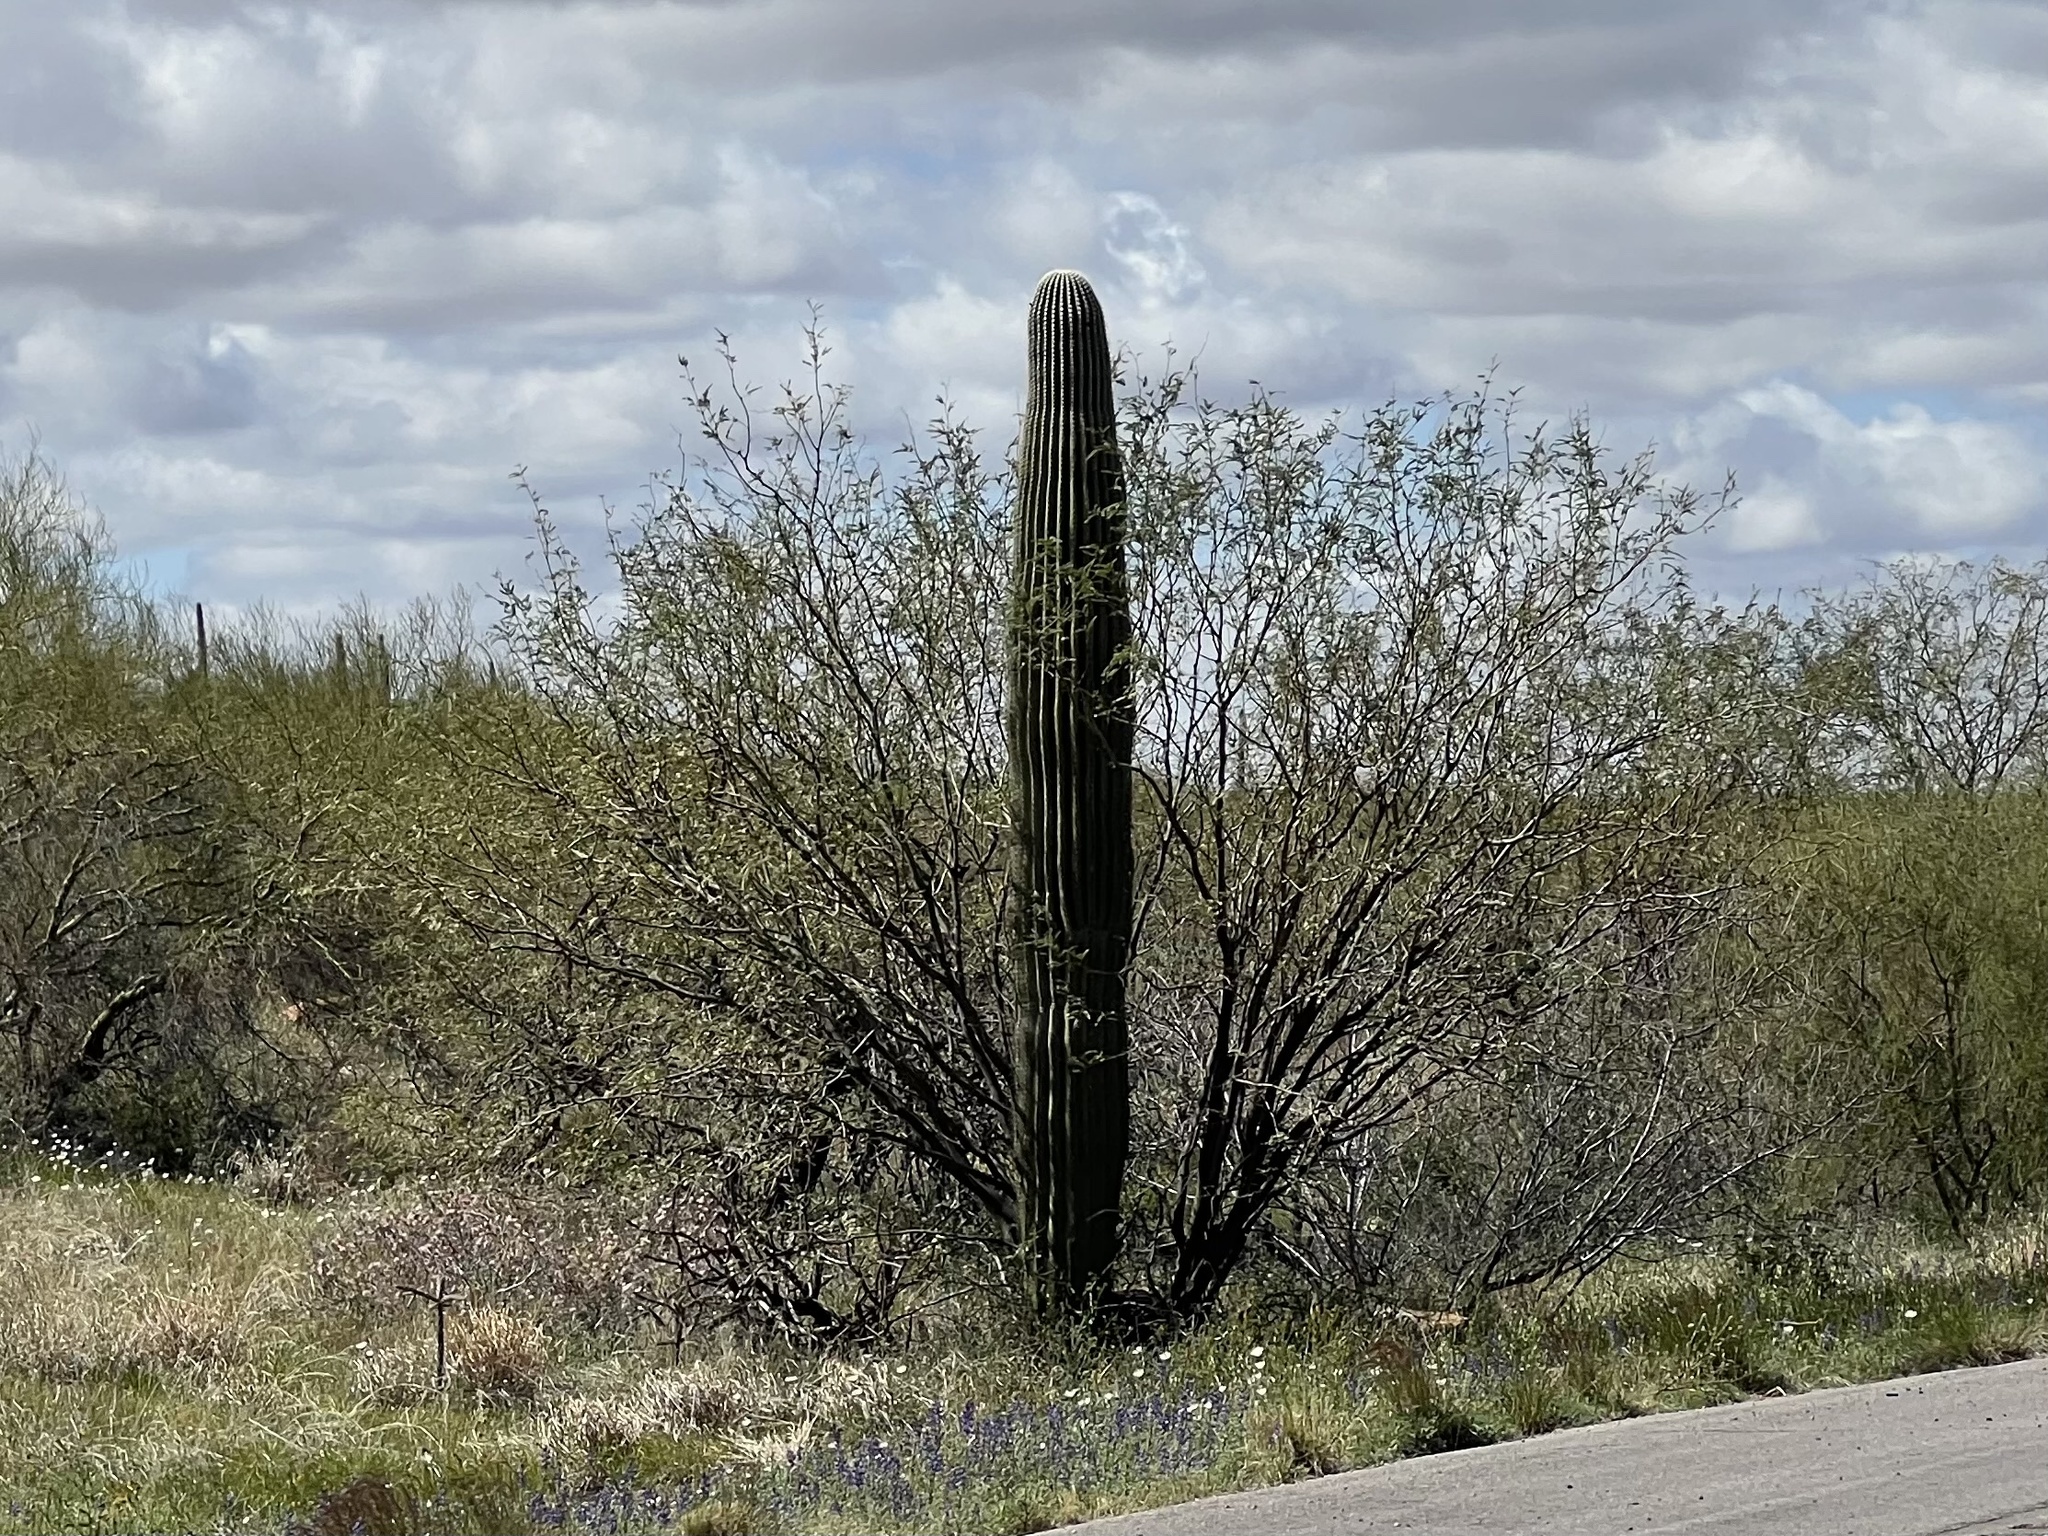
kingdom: Plantae
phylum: Tracheophyta
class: Magnoliopsida
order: Caryophyllales
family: Cactaceae
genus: Carnegiea
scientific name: Carnegiea gigantea
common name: Saguaro
